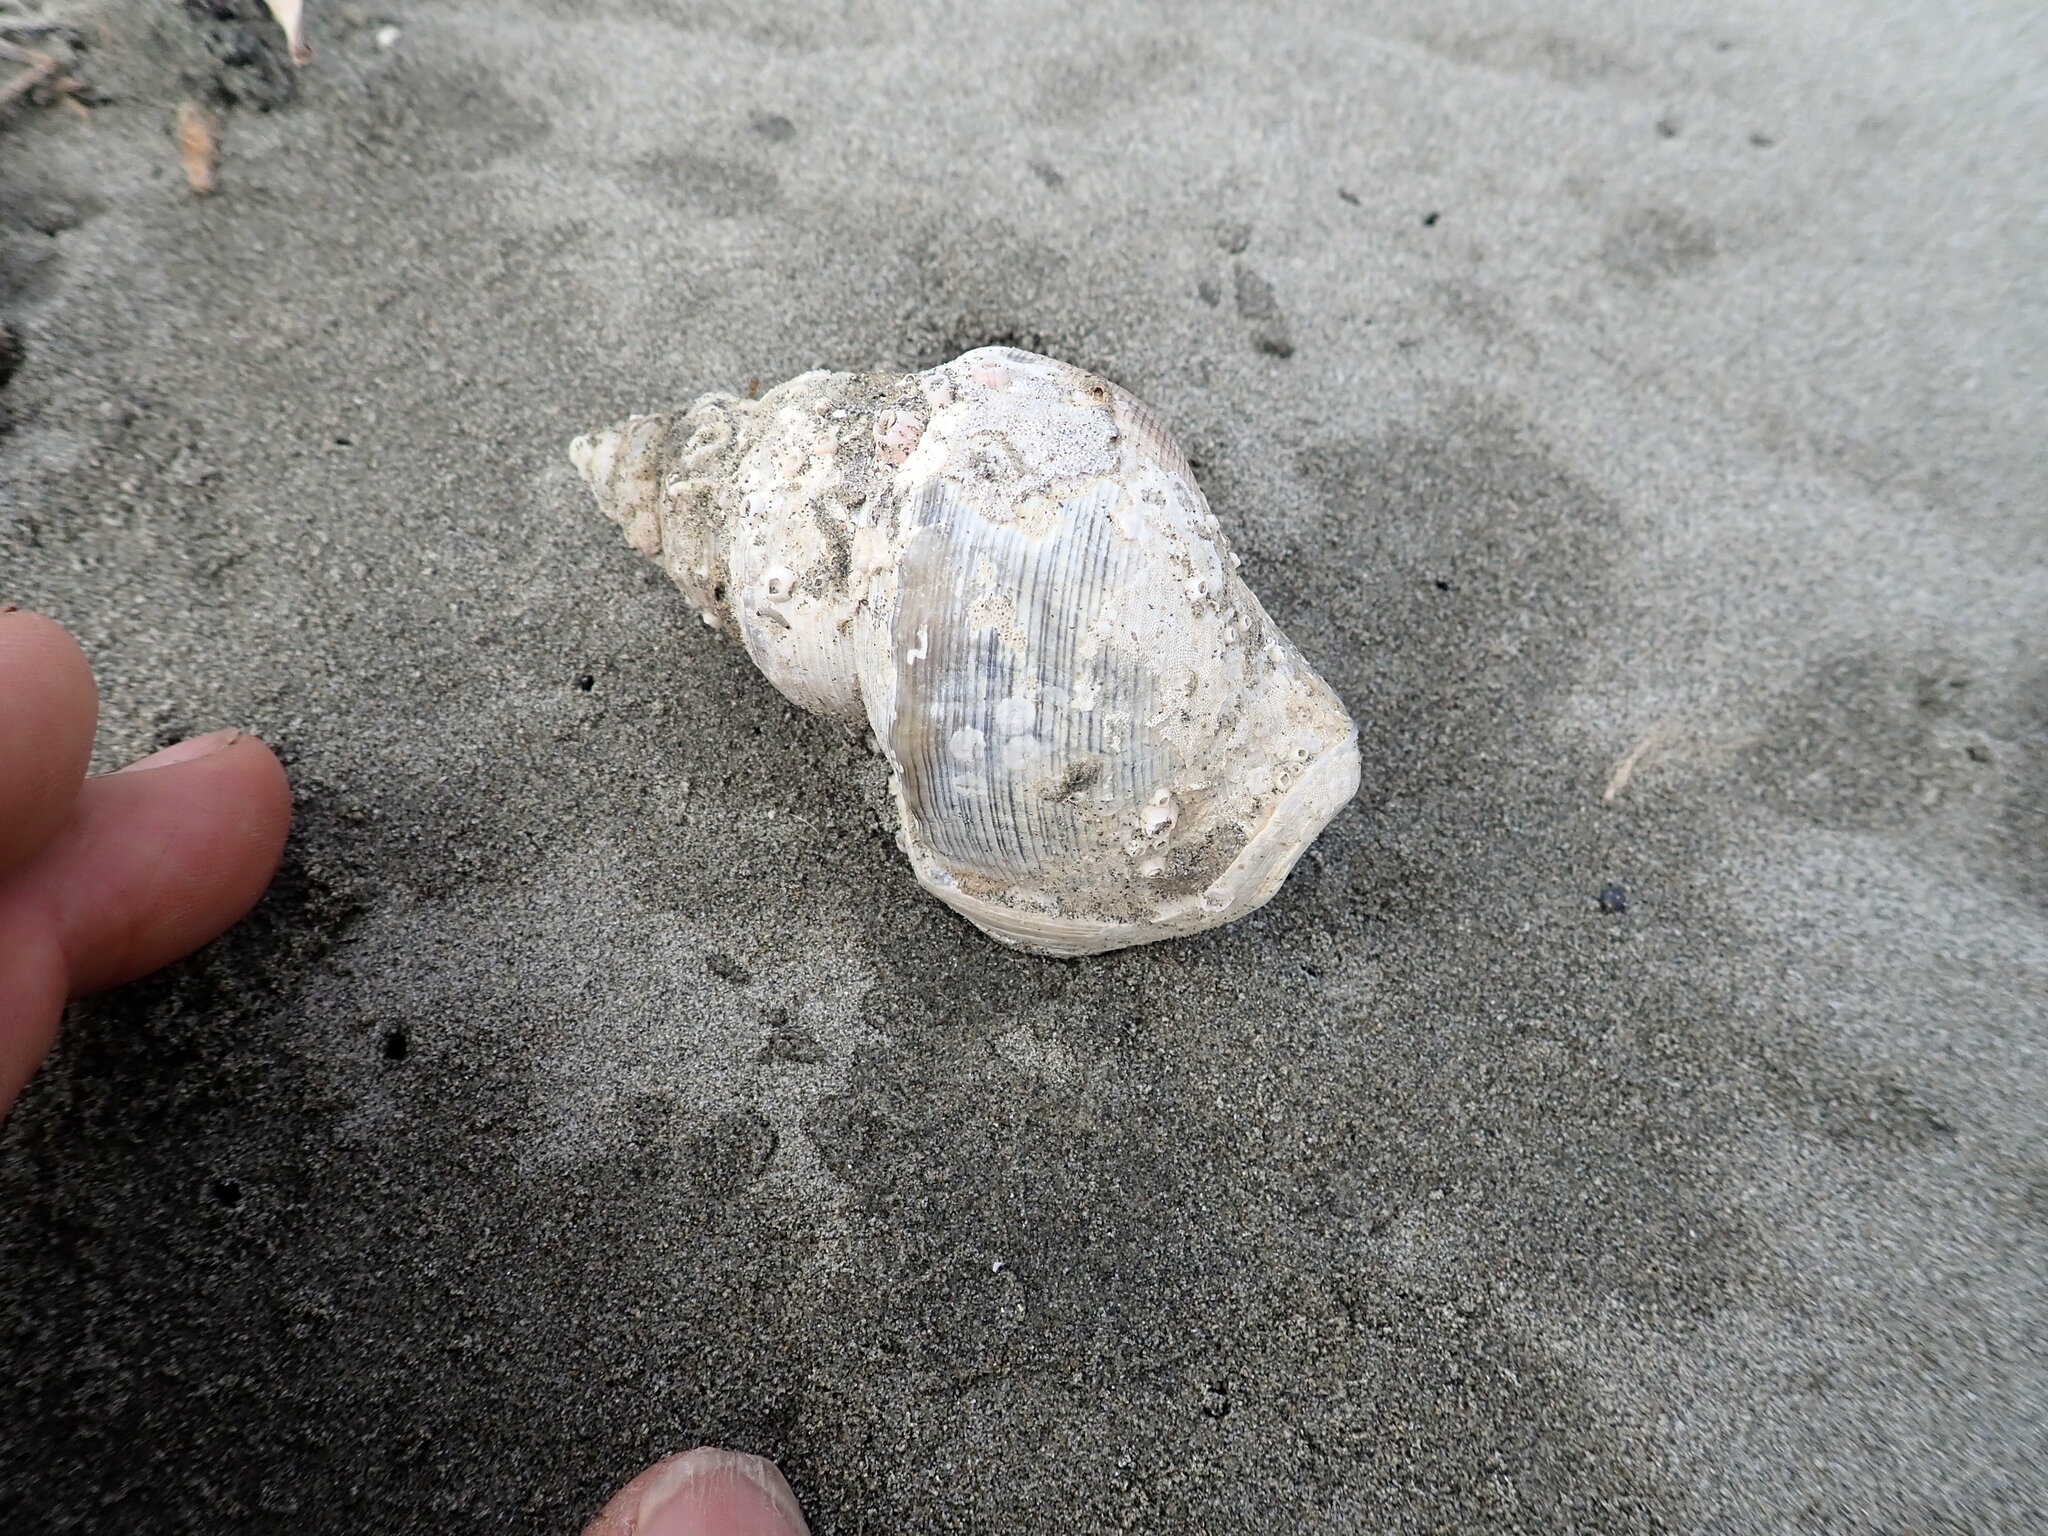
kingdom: Animalia
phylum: Mollusca
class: Gastropoda
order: Littorinimorpha
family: Struthiolariidae
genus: Struthiolaria
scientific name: Struthiolaria papulosa
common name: Large ostrich foot
